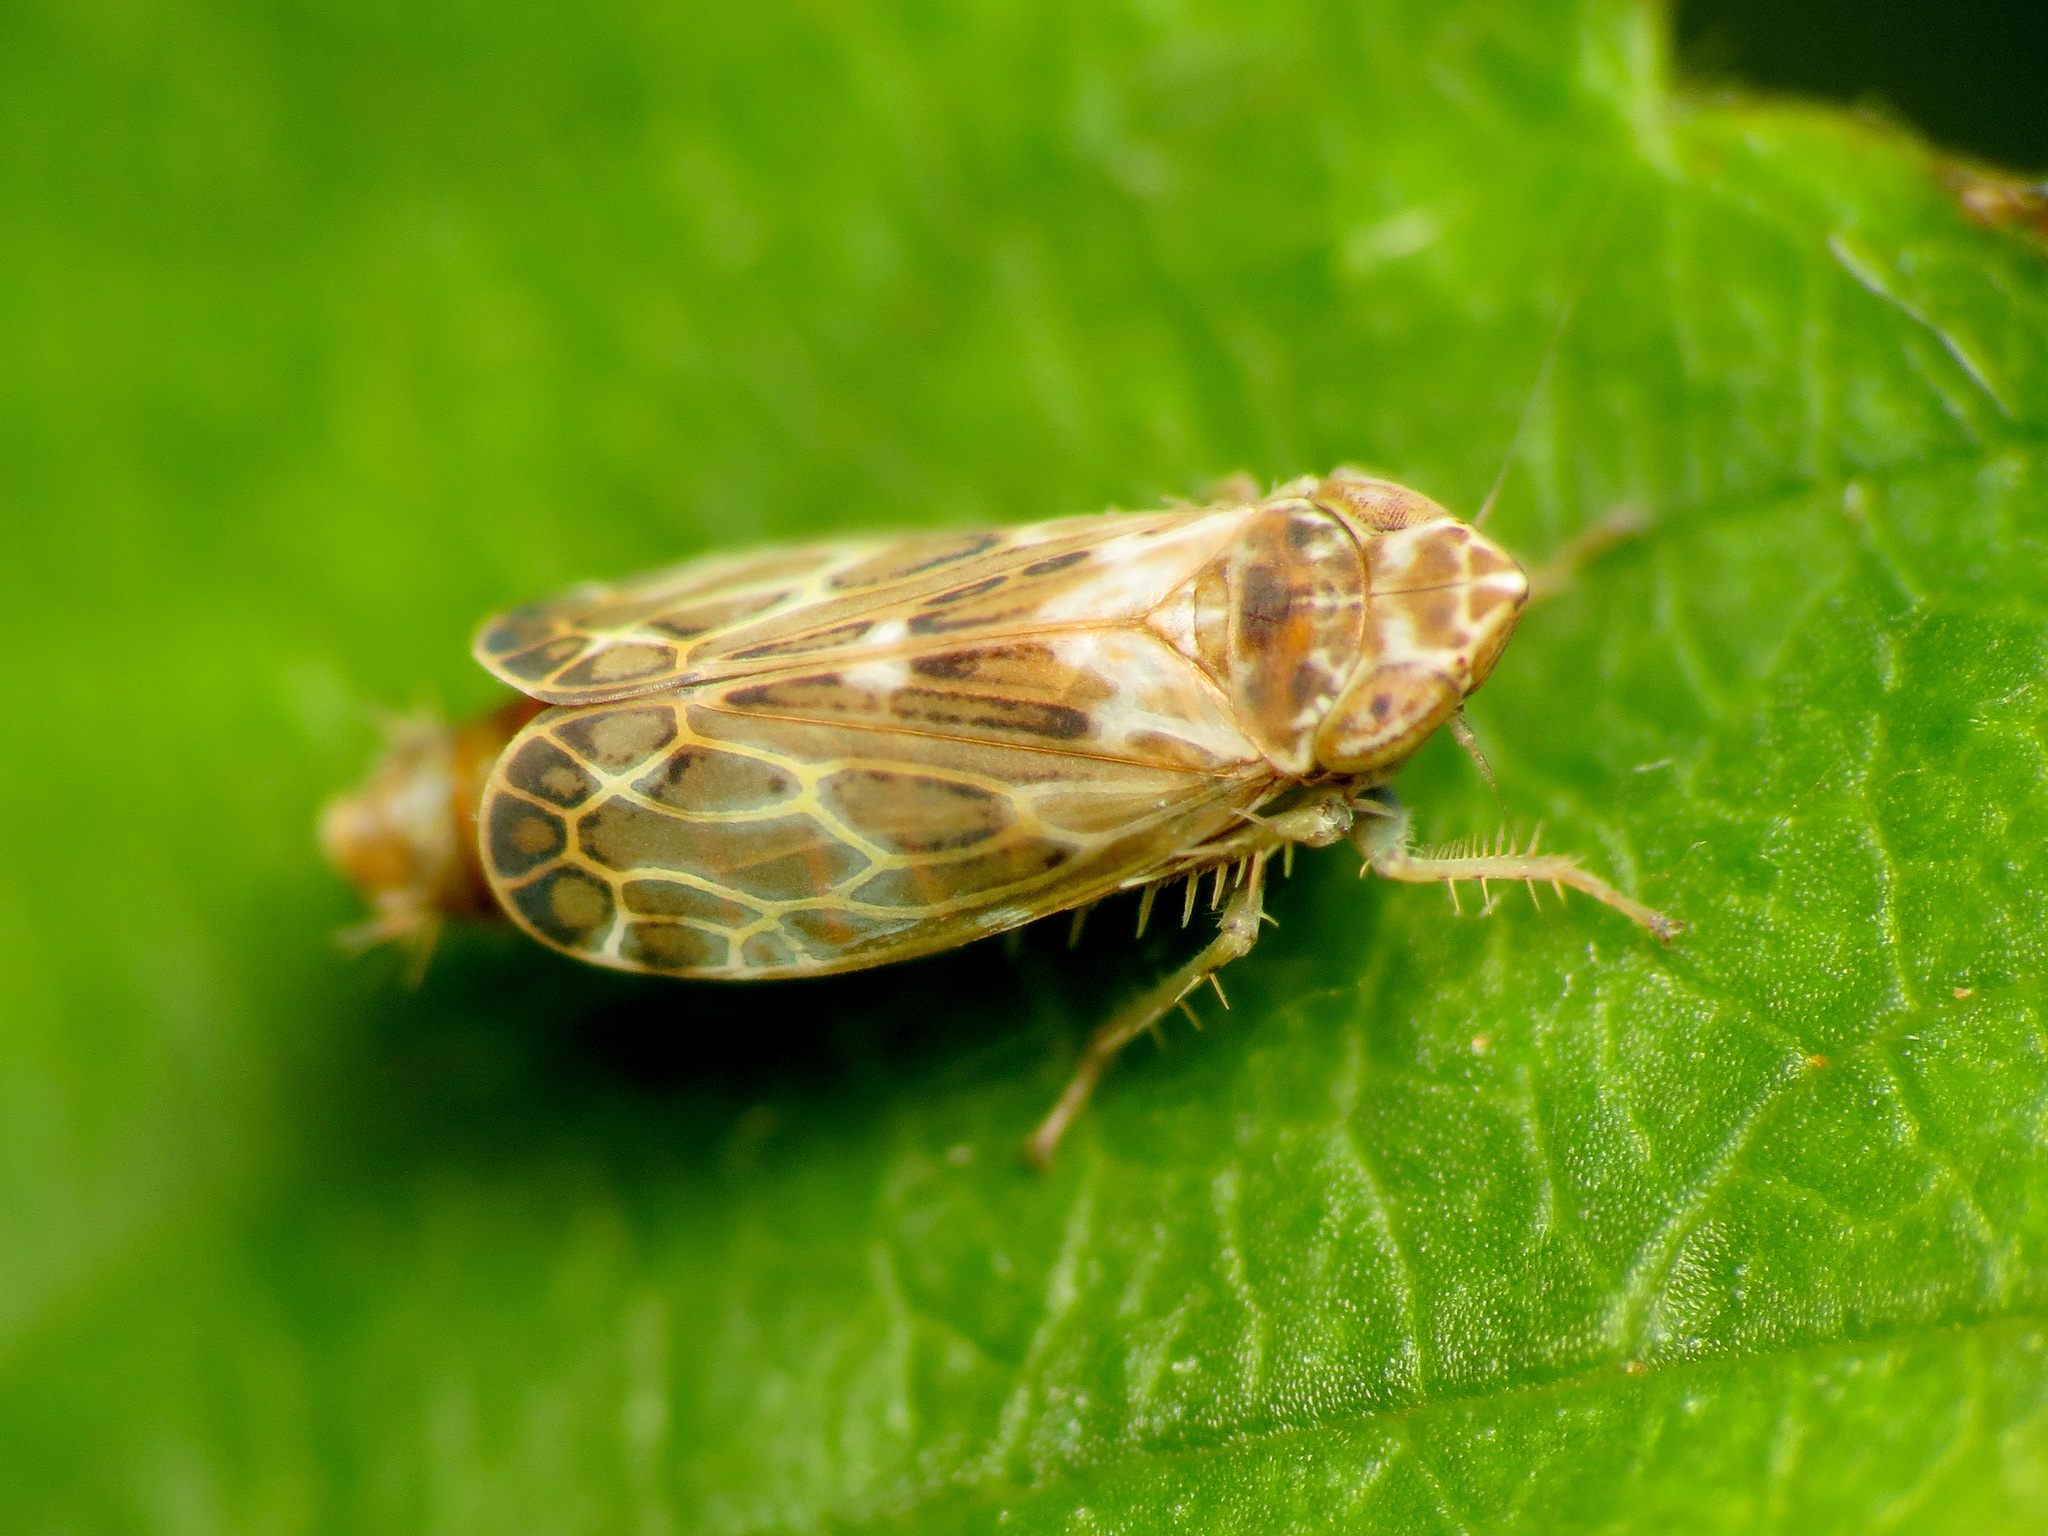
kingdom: Animalia
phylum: Arthropoda
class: Insecta
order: Hemiptera
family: Cicadellidae
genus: Latalus
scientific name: Latalus sayii
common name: Say’s leafhopper
